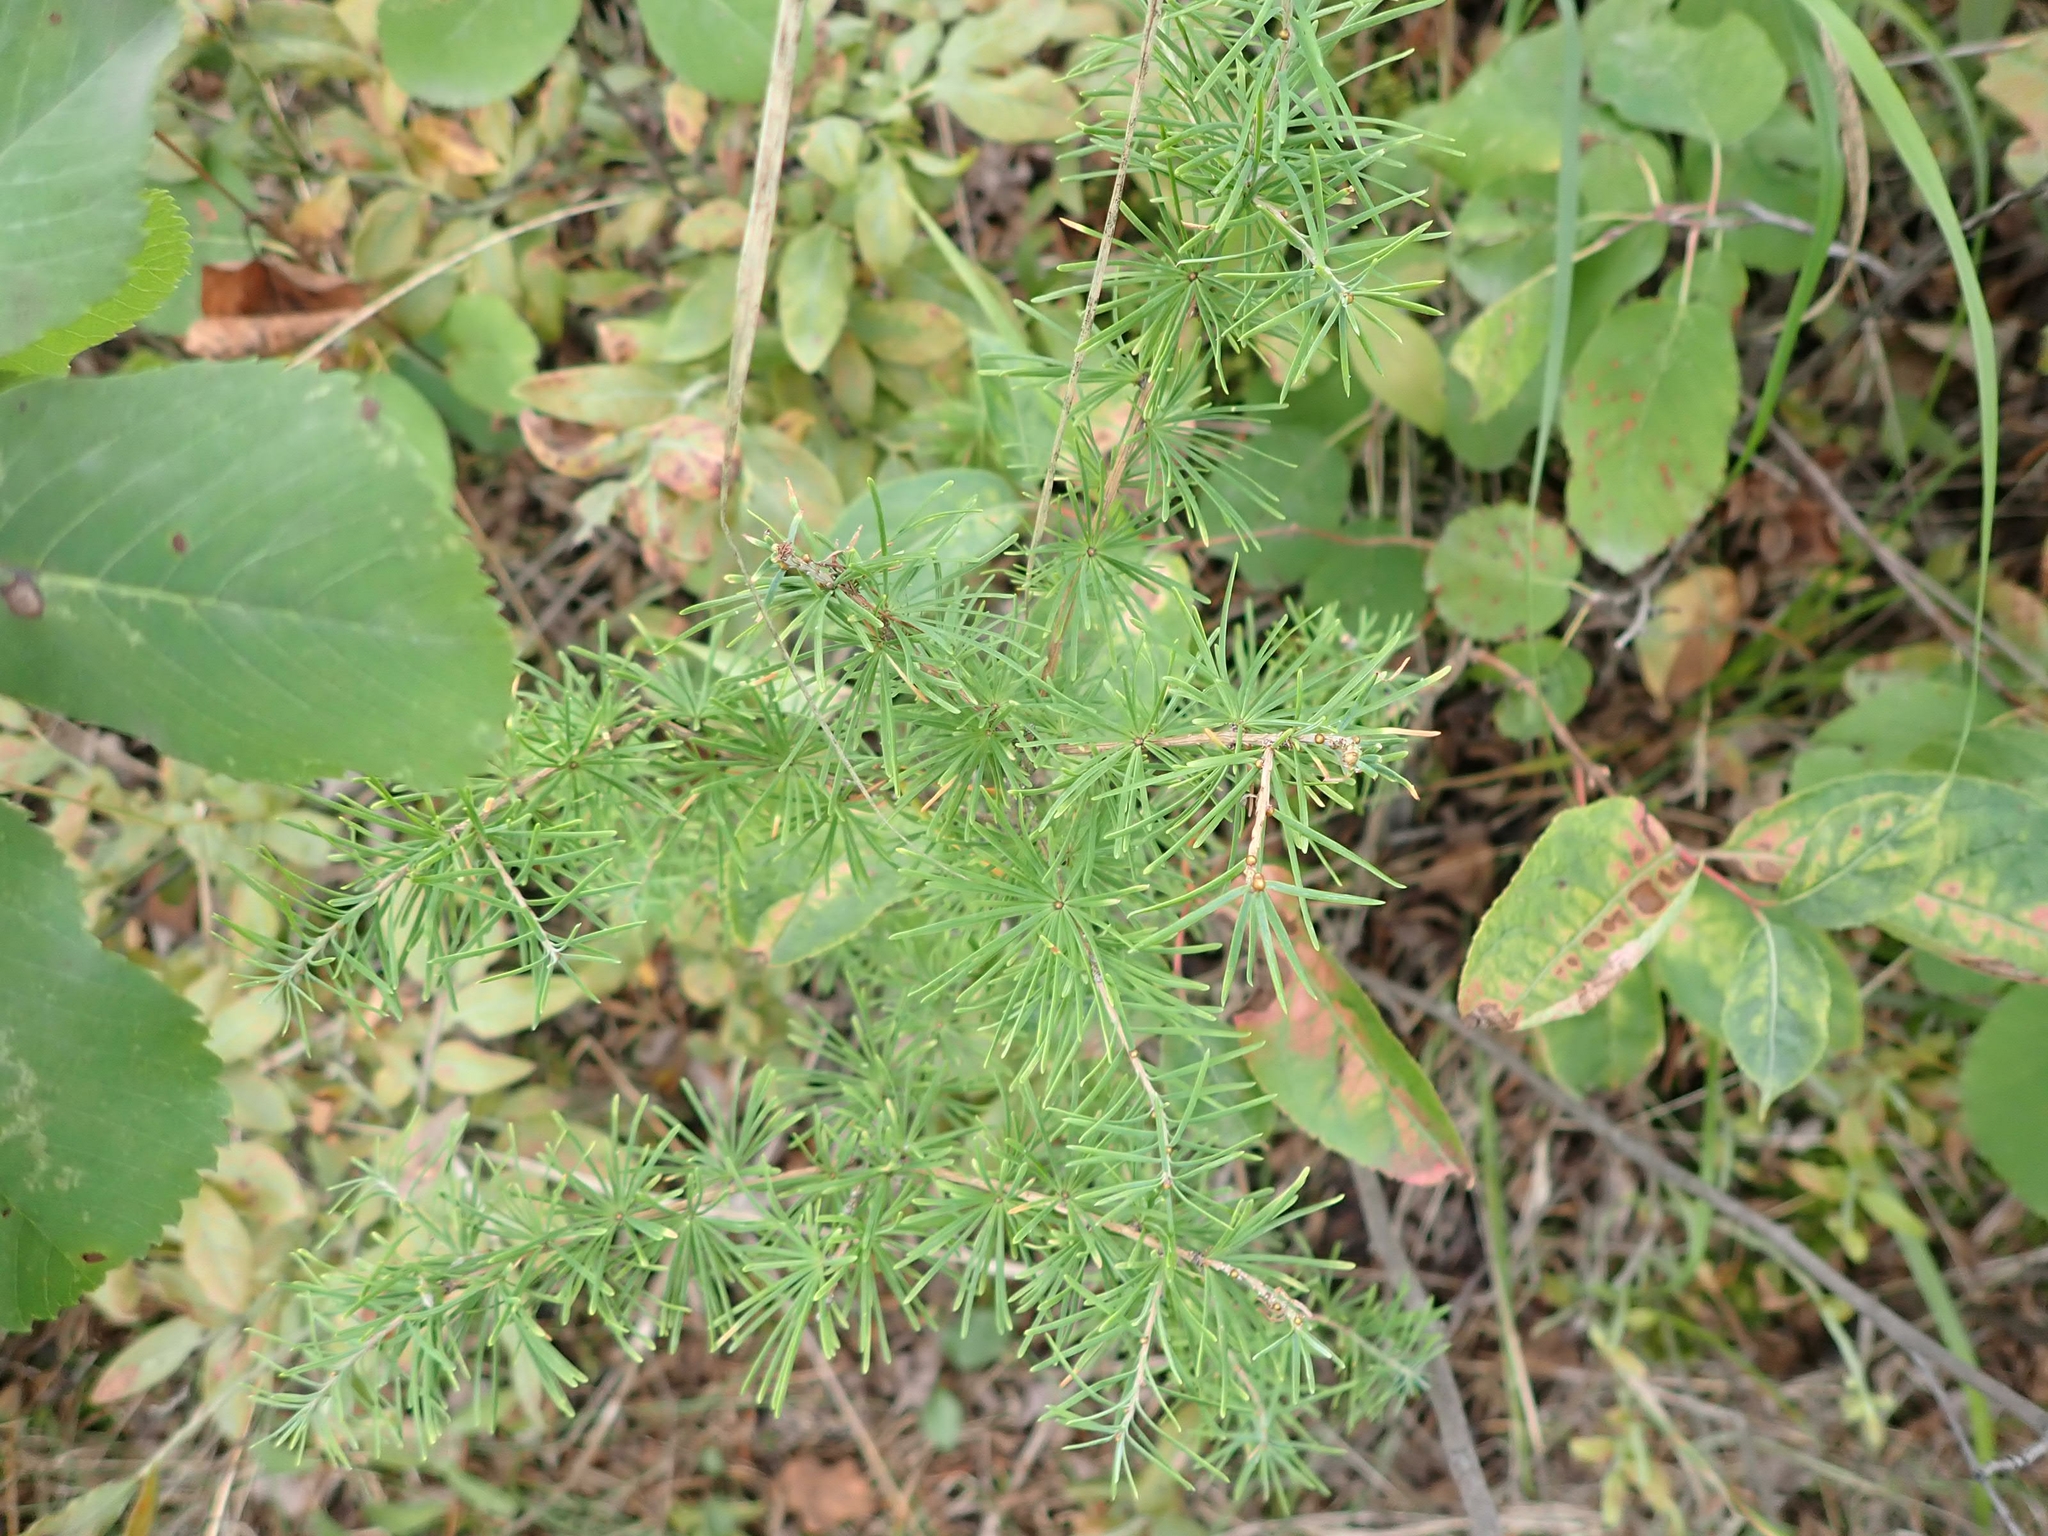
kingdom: Plantae
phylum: Tracheophyta
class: Pinopsida
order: Pinales
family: Pinaceae
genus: Larix
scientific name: Larix laricina
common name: American larch
